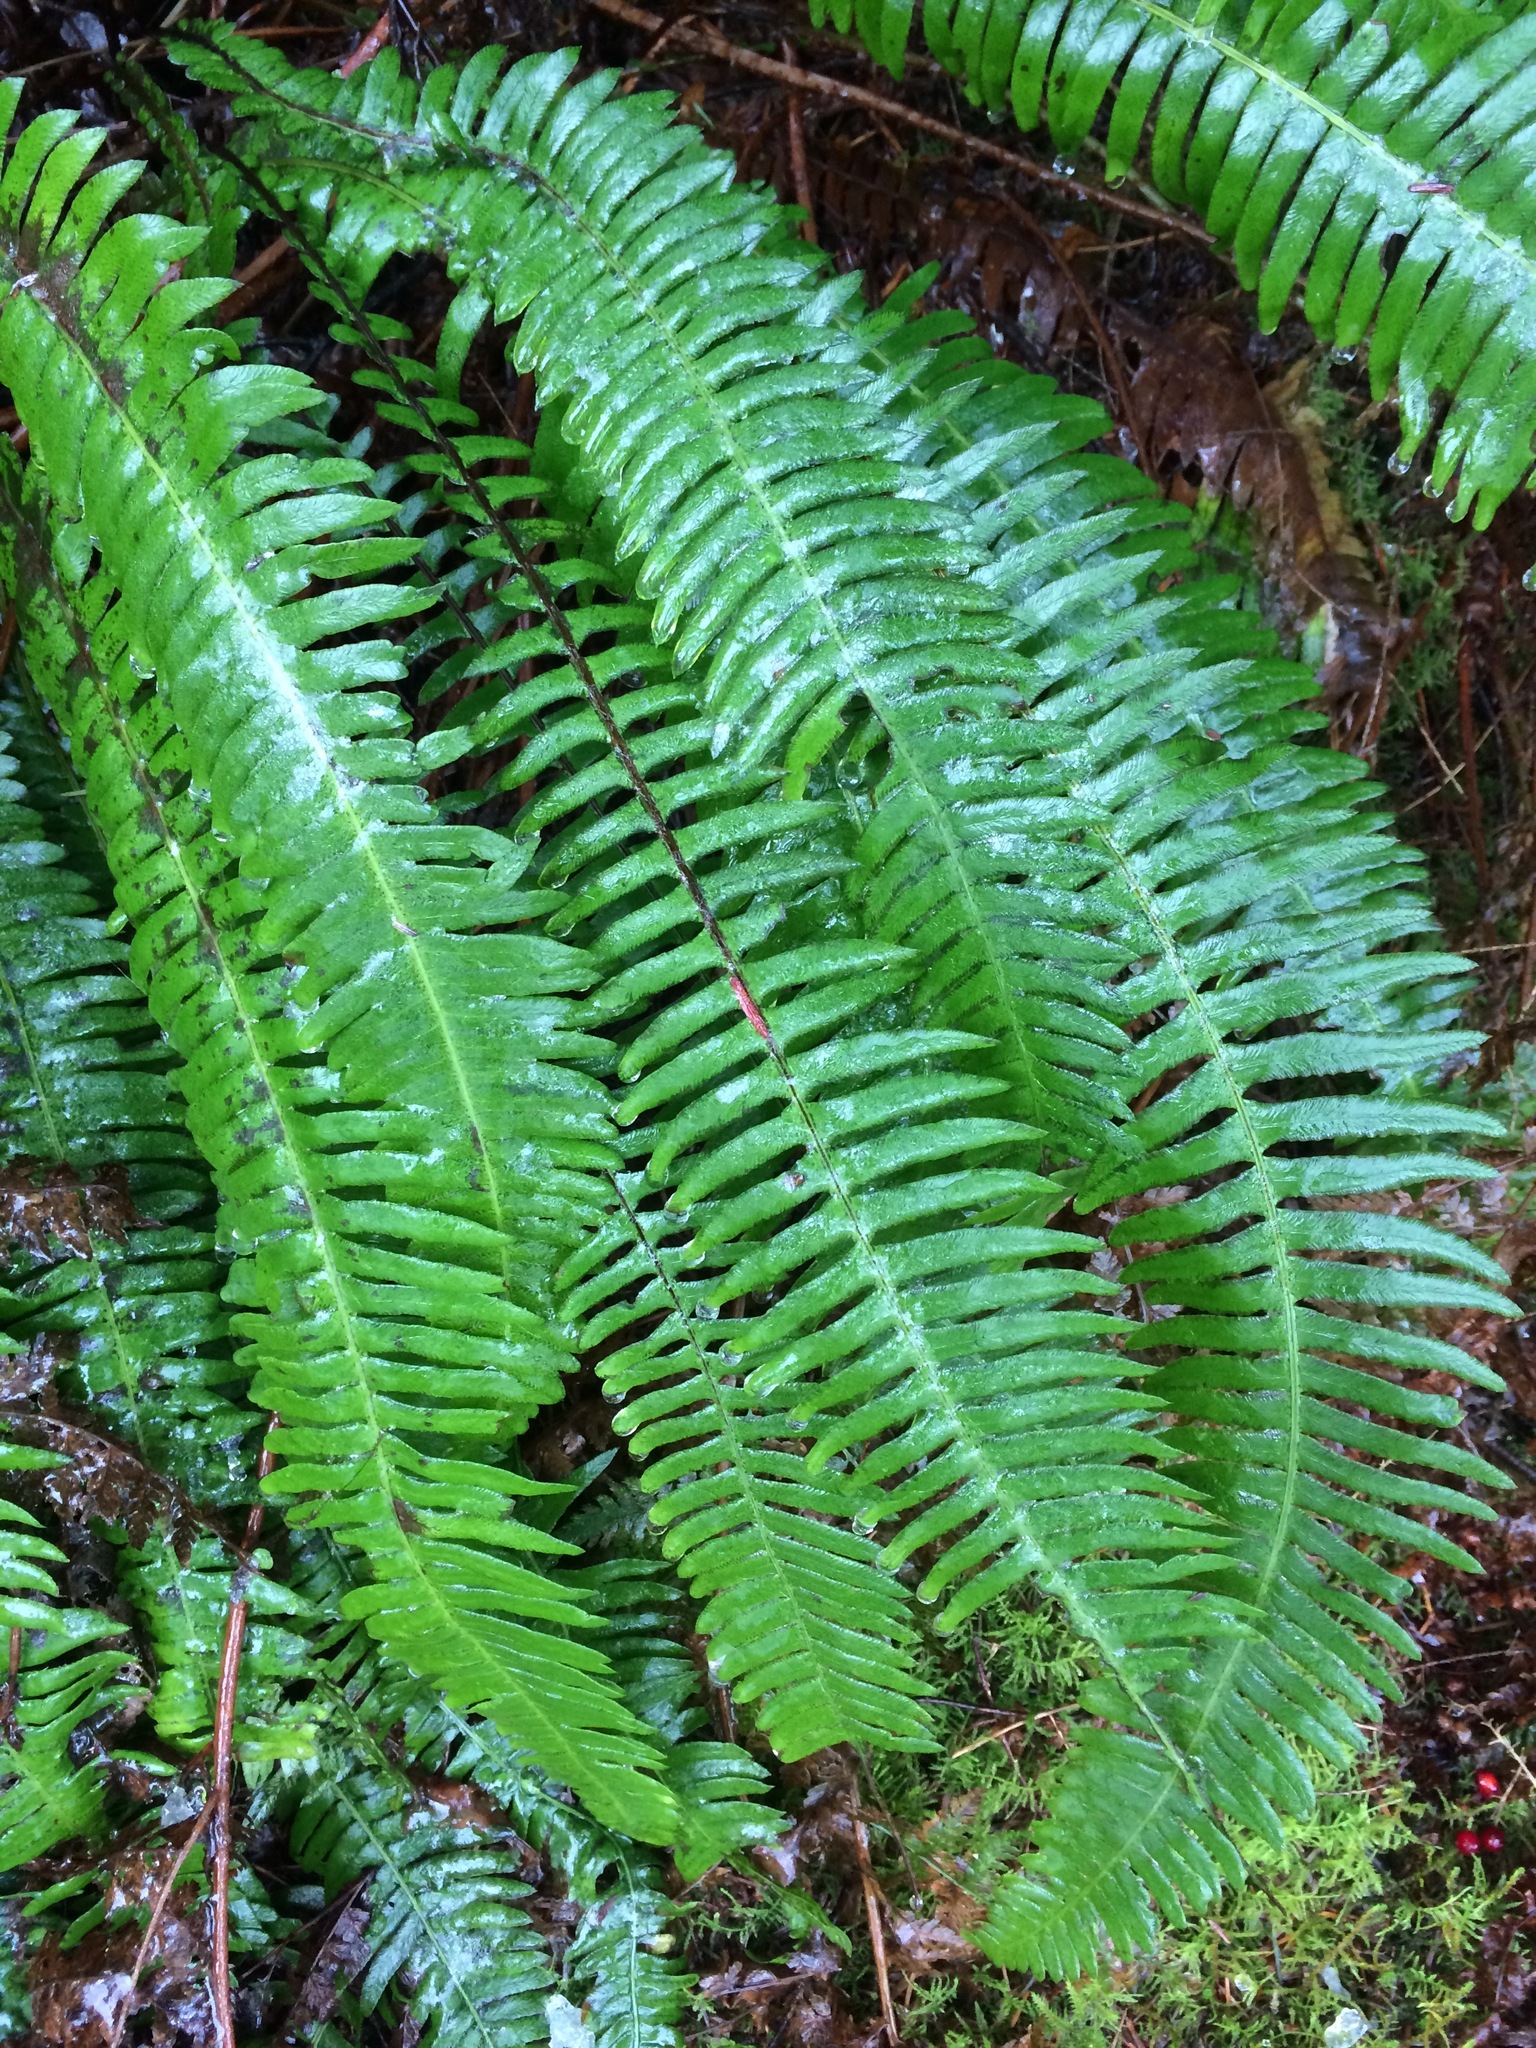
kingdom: Plantae
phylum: Tracheophyta
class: Polypodiopsida
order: Polypodiales
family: Blechnaceae
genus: Struthiopteris
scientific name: Struthiopteris spicant
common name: Deer fern
